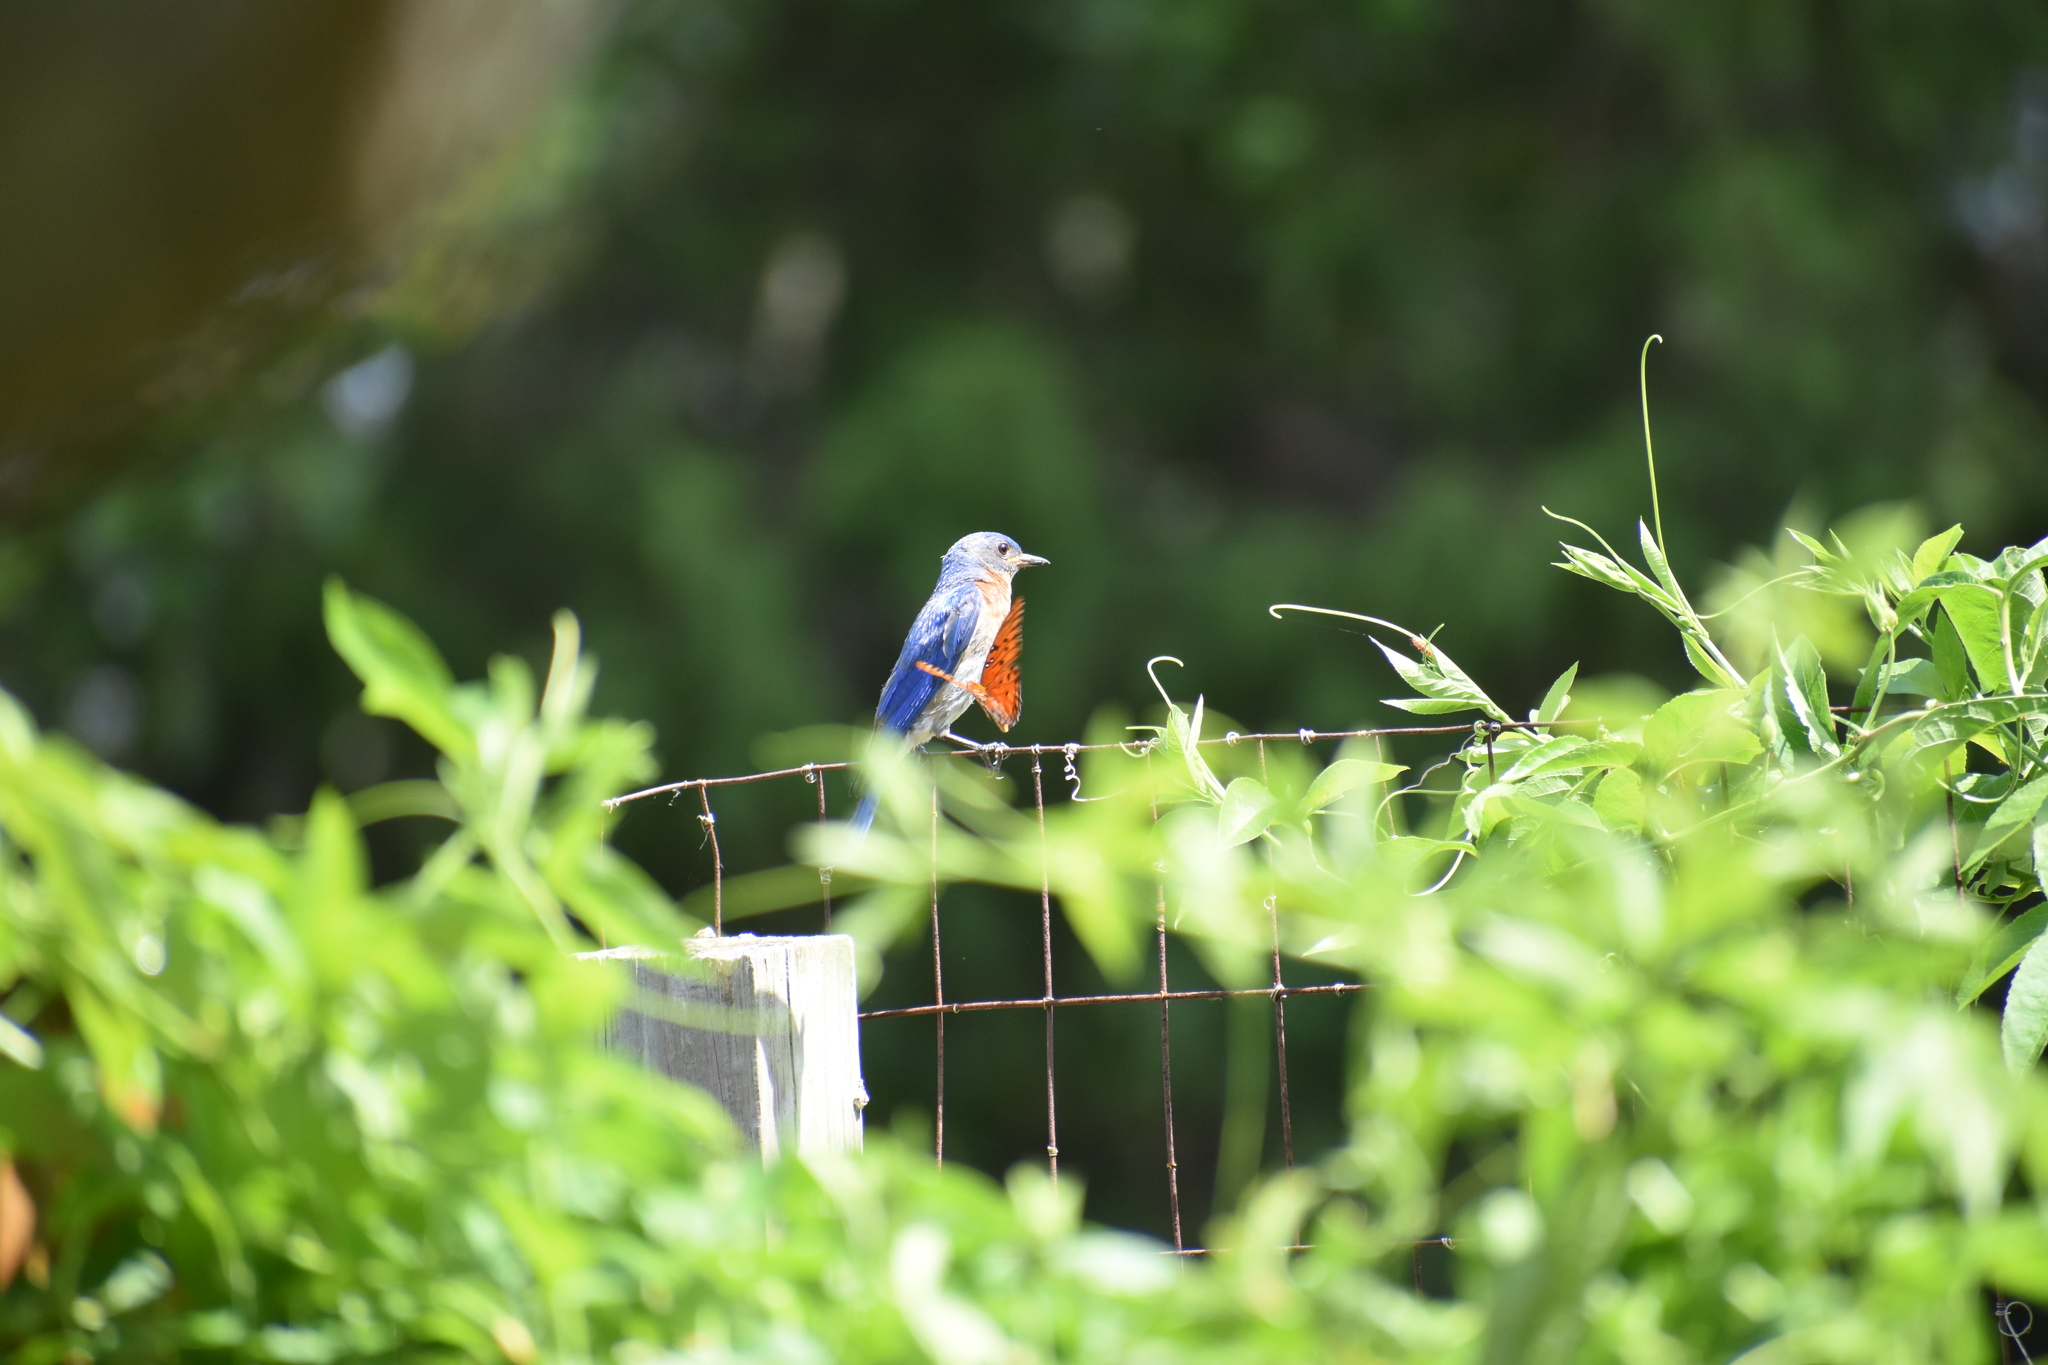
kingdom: Animalia
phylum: Arthropoda
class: Insecta
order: Lepidoptera
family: Nymphalidae
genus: Dione
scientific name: Dione vanillae
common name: Gulf fritillary
